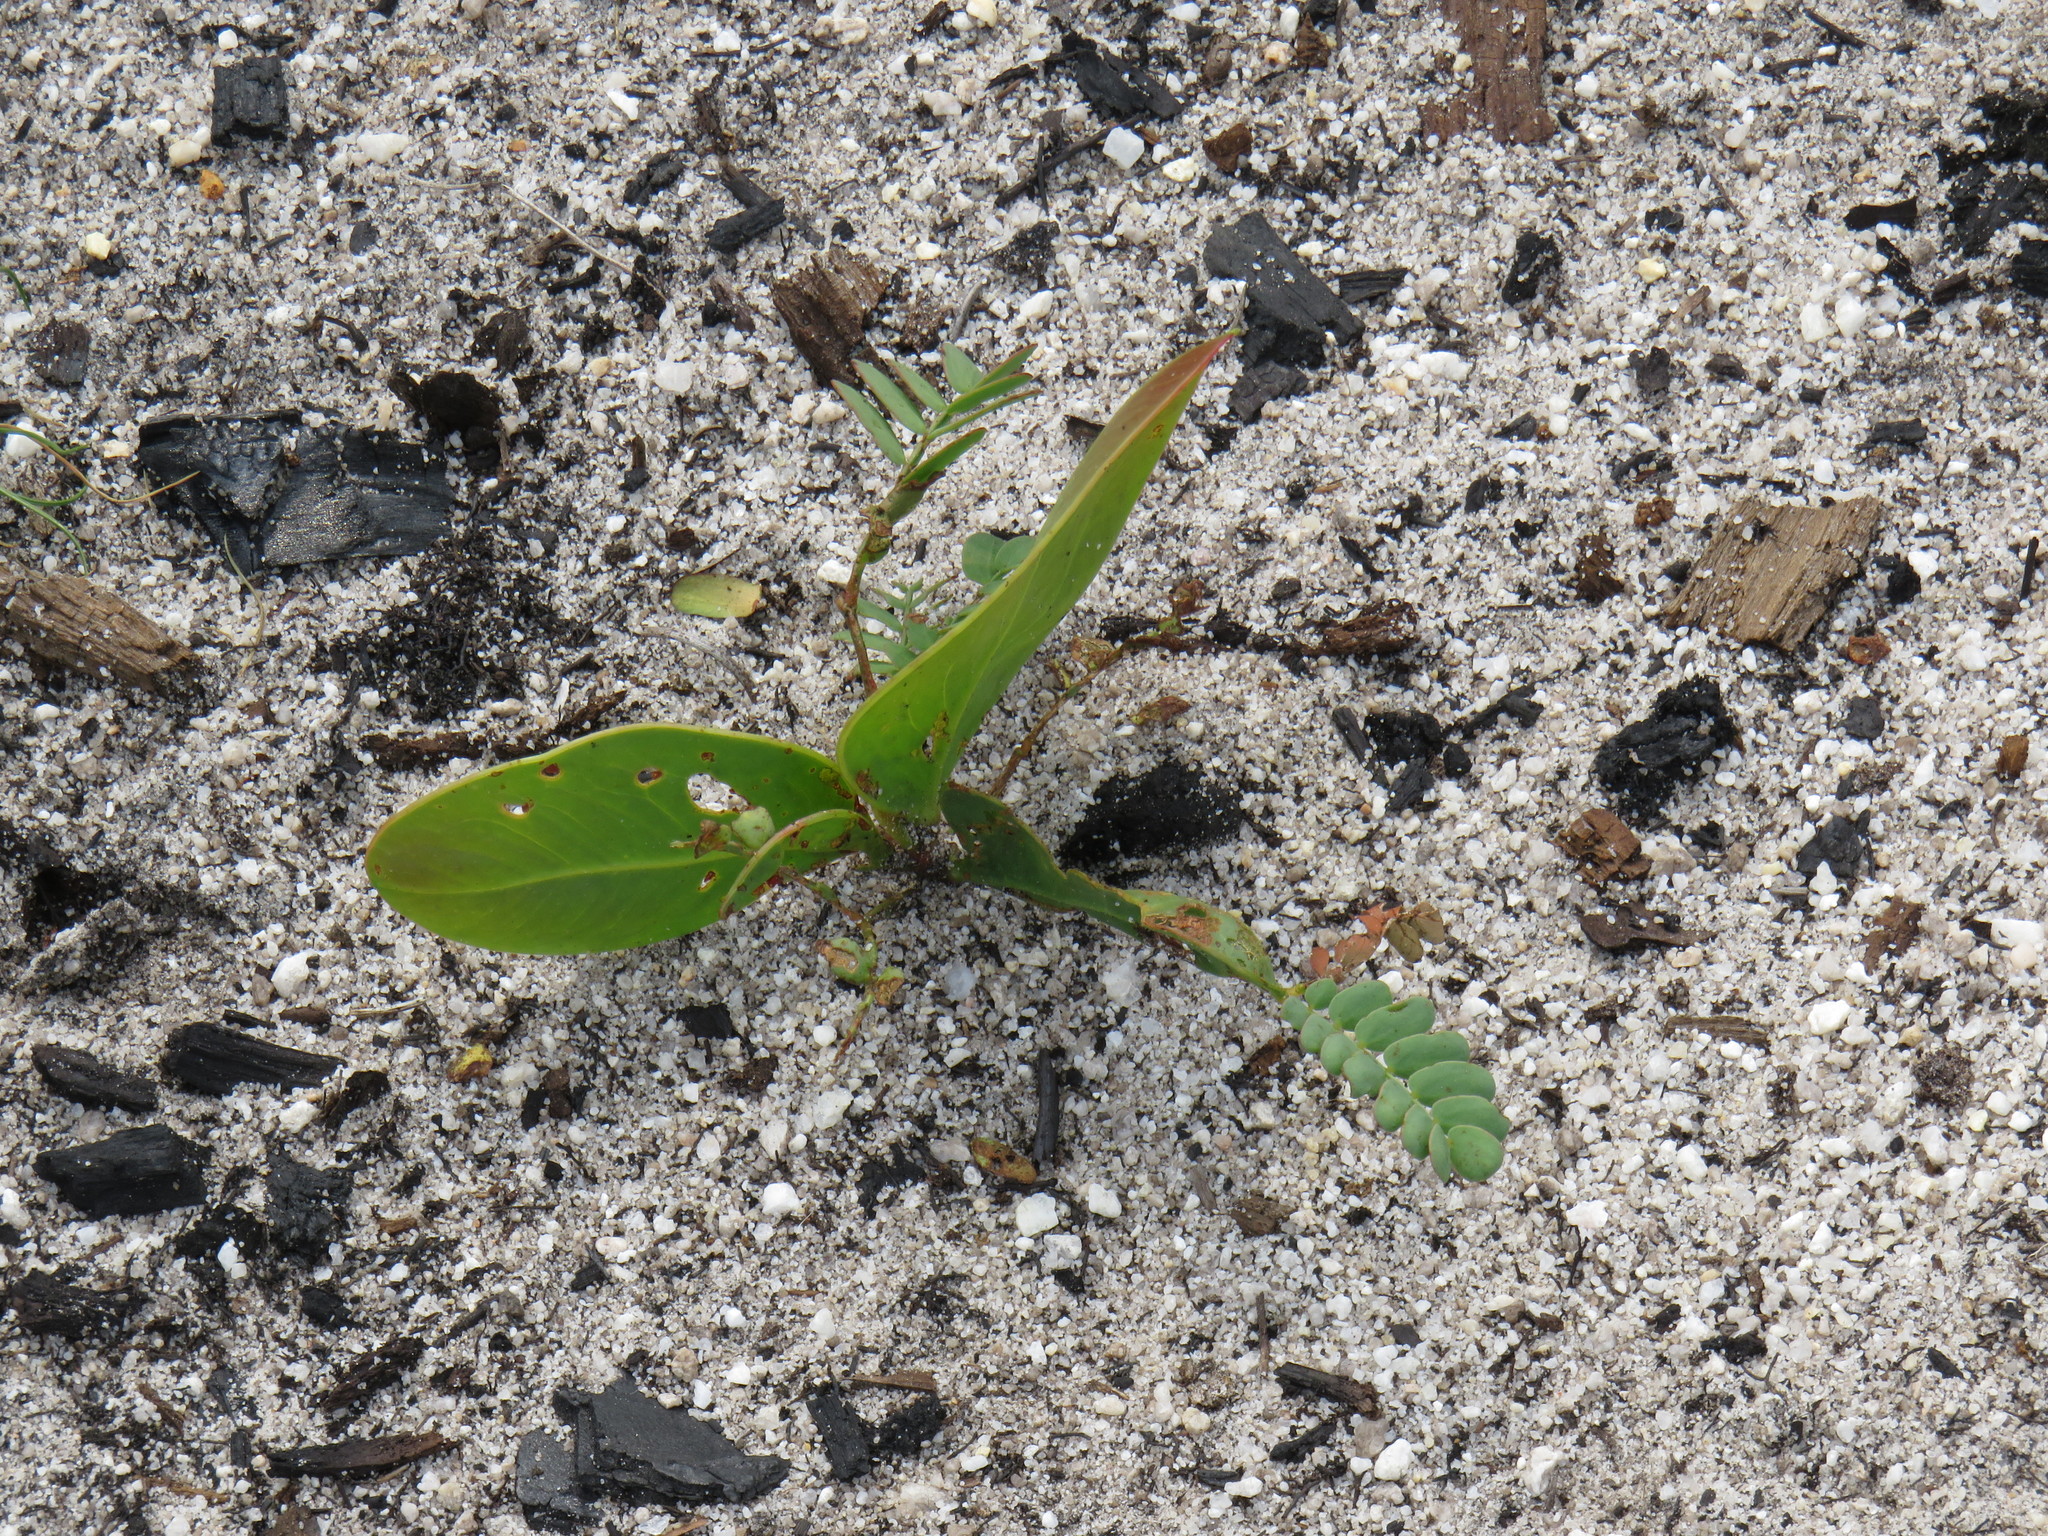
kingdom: Plantae
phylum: Tracheophyta
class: Magnoliopsida
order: Fabales
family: Fabaceae
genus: Acacia
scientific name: Acacia pycnantha
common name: Golden wattle
